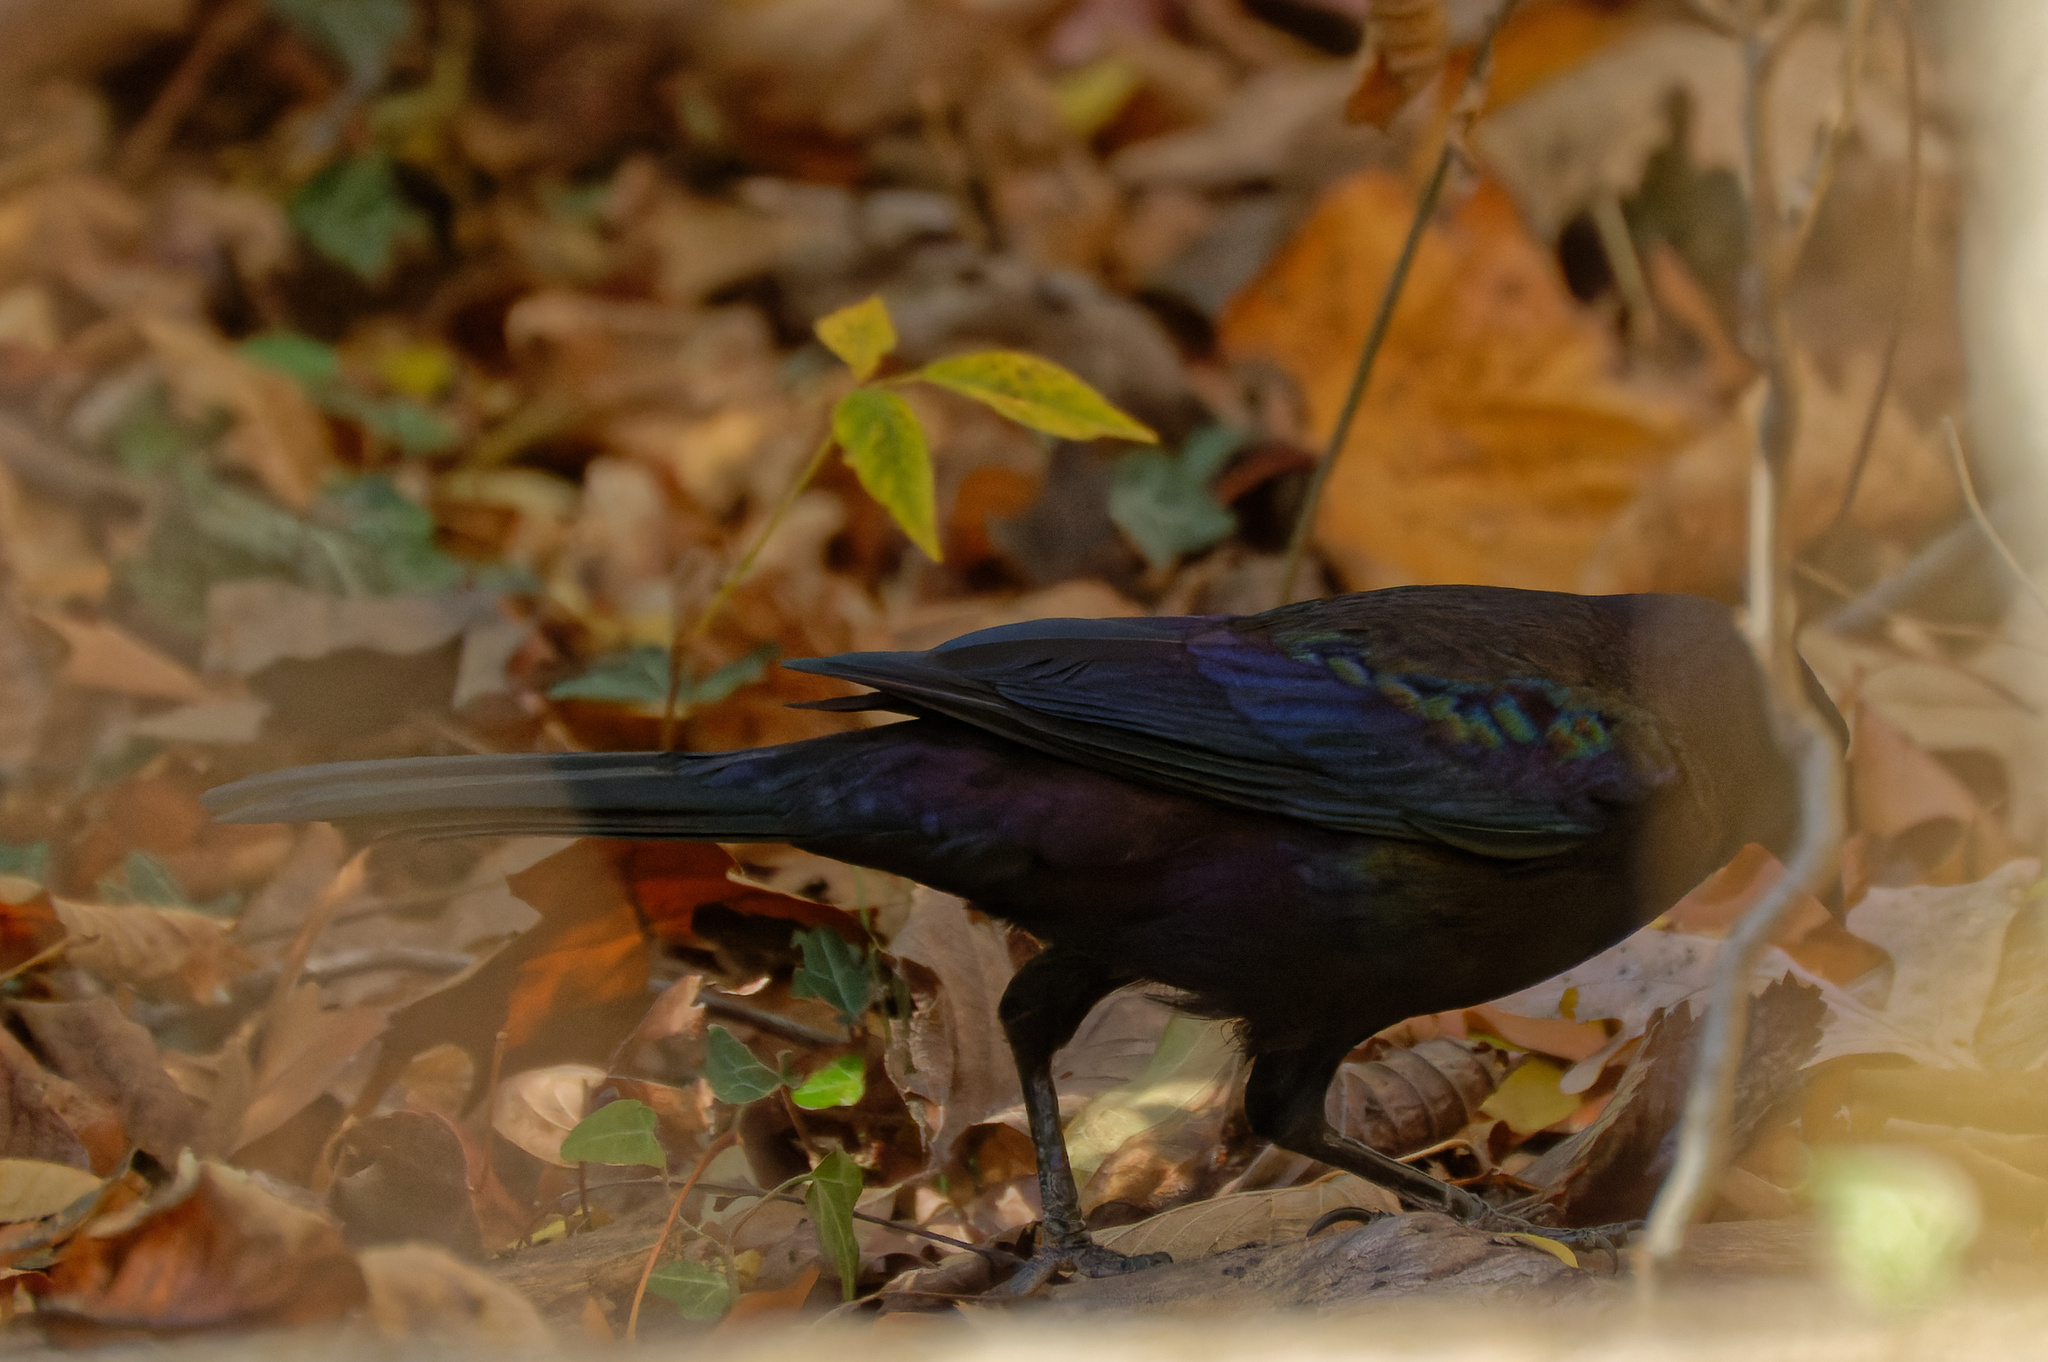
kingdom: Animalia
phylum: Chordata
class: Aves
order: Passeriformes
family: Icteridae
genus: Quiscalus
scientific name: Quiscalus quiscula
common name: Common grackle
